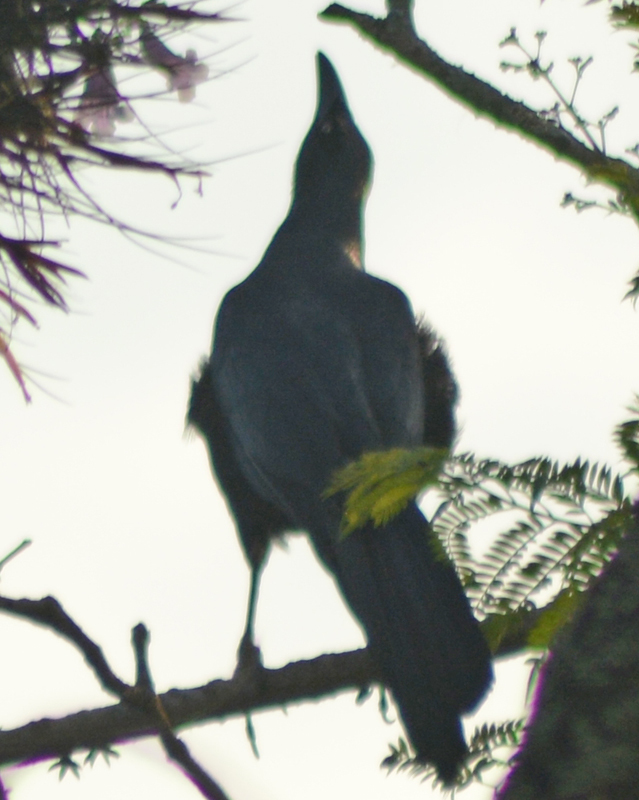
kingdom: Animalia
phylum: Chordata
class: Aves
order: Passeriformes
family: Icteridae
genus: Quiscalus
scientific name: Quiscalus mexicanus
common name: Great-tailed grackle
